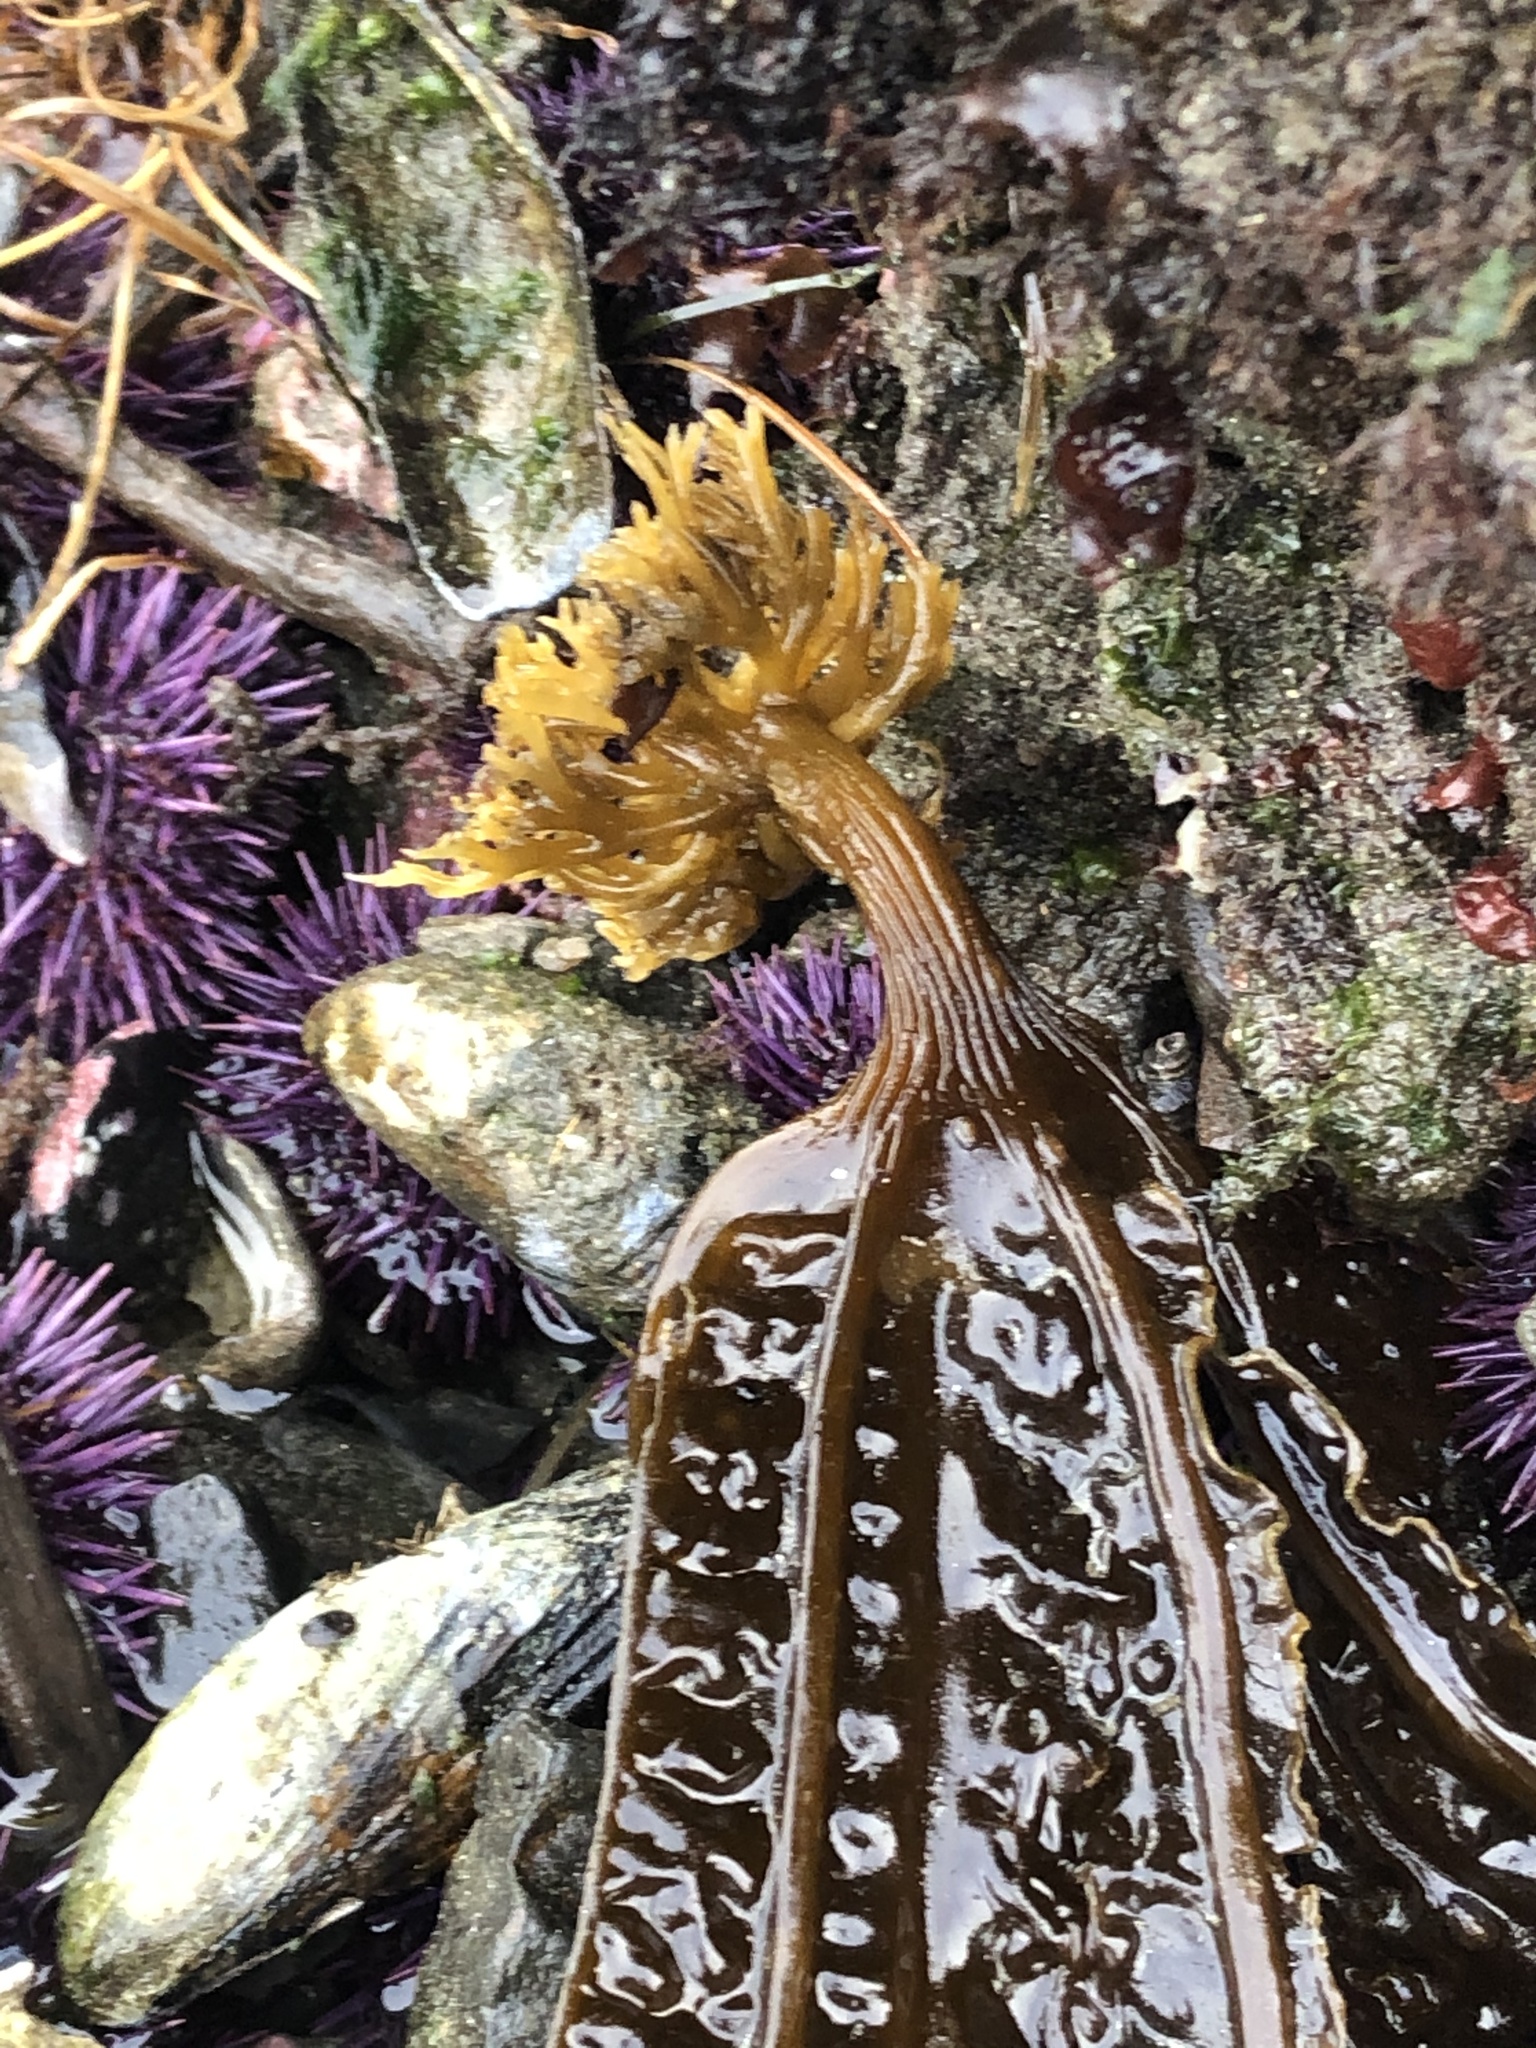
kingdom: Chromista
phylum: Ochrophyta
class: Phaeophyceae
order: Laminariales
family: Costariaceae
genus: Costaria
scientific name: Costaria costata
